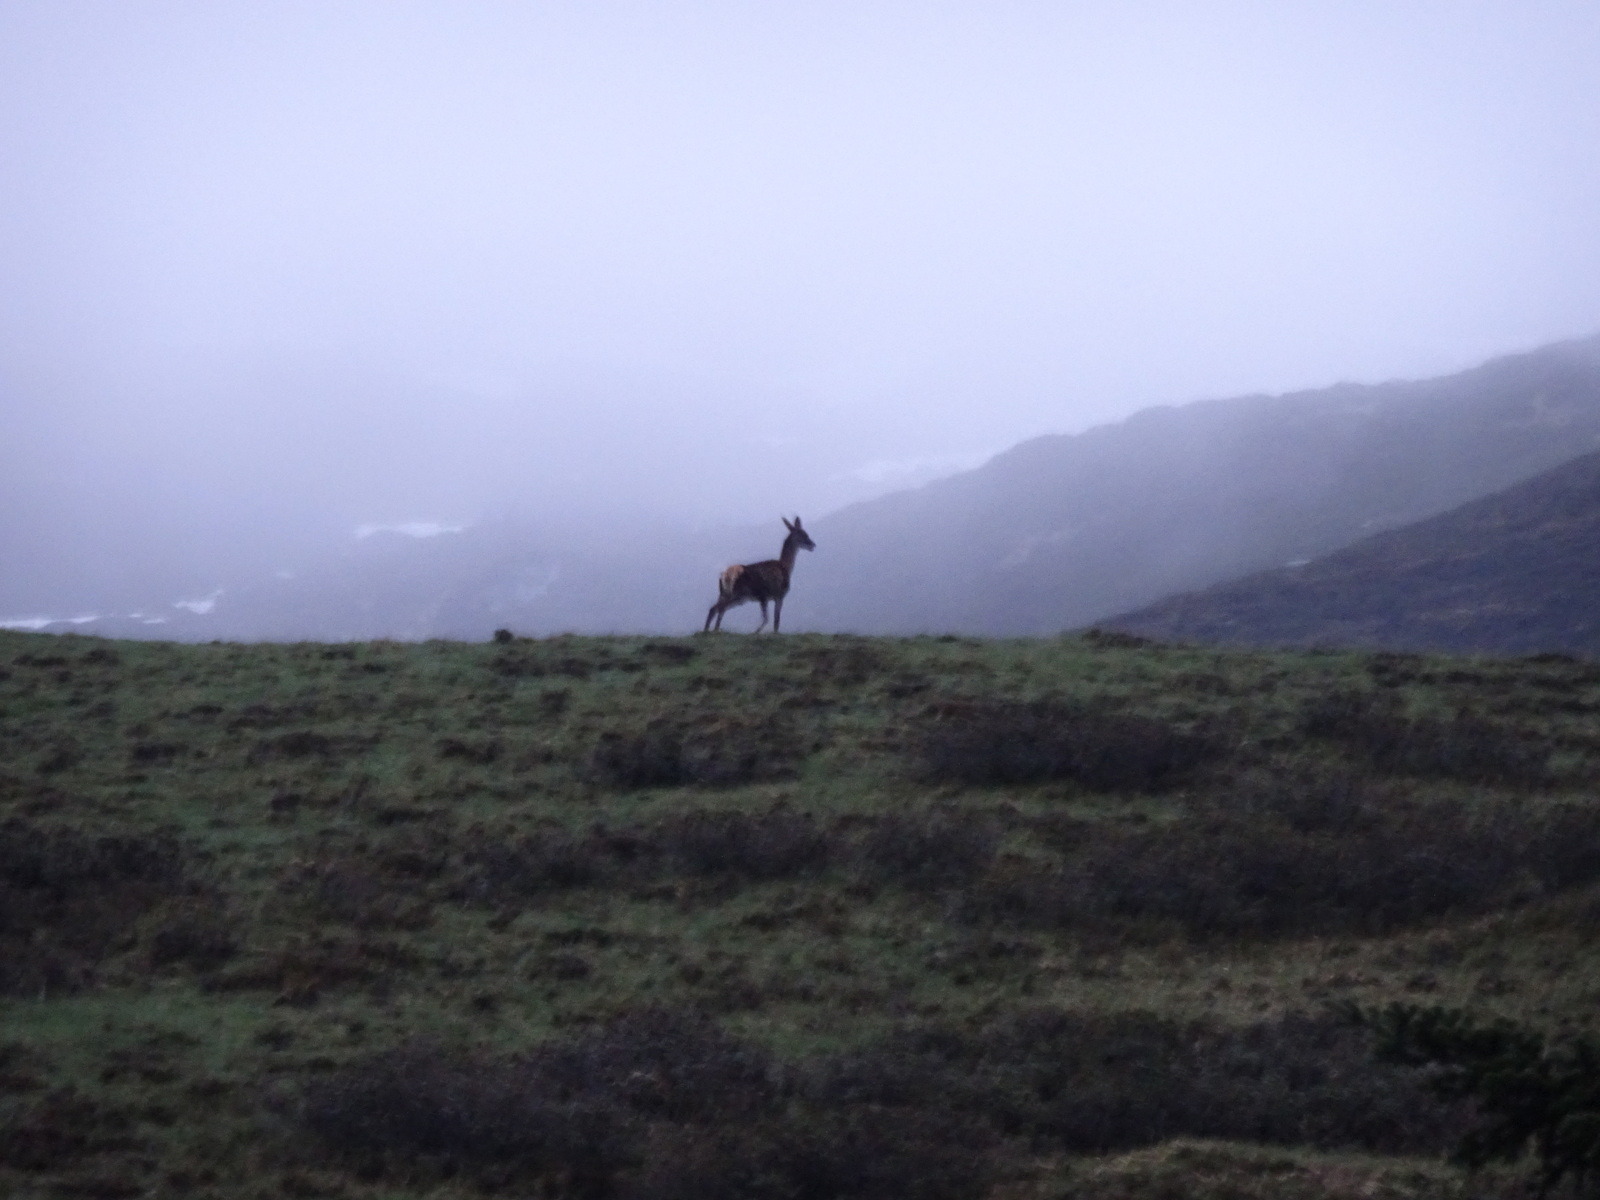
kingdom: Animalia
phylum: Chordata
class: Mammalia
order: Artiodactyla
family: Cervidae
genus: Cervus
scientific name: Cervus elaphus
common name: Red deer
